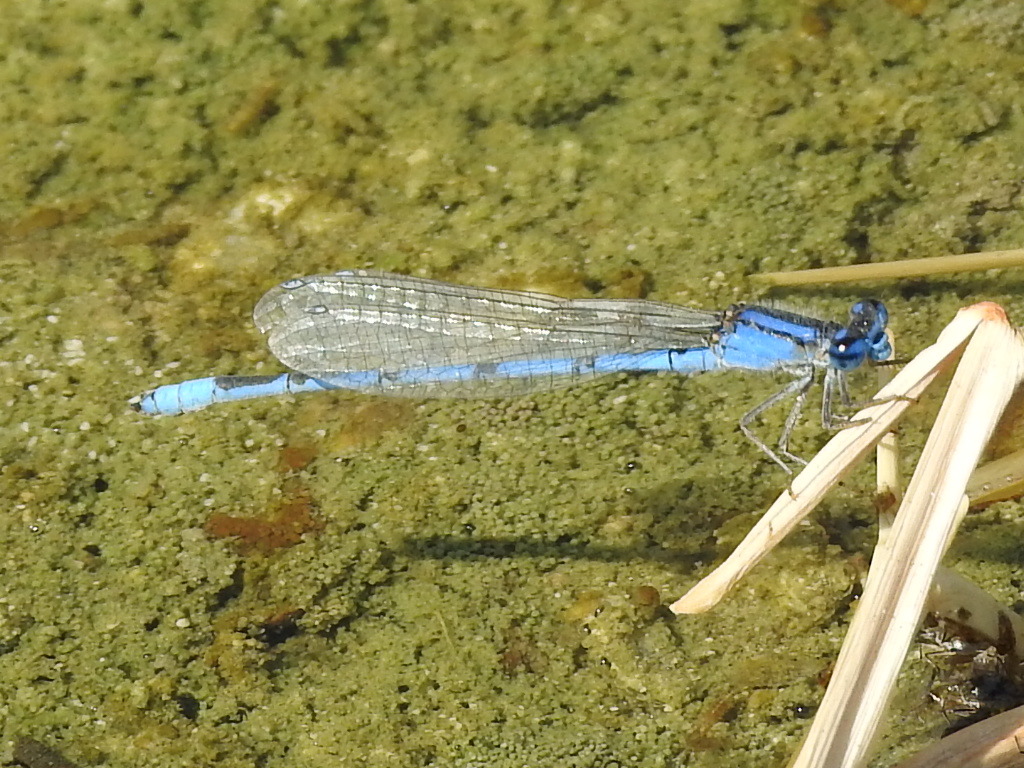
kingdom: Animalia
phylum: Arthropoda
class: Insecta
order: Odonata
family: Coenagrionidae
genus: Enallagma
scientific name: Enallagma civile
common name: Damselfly
